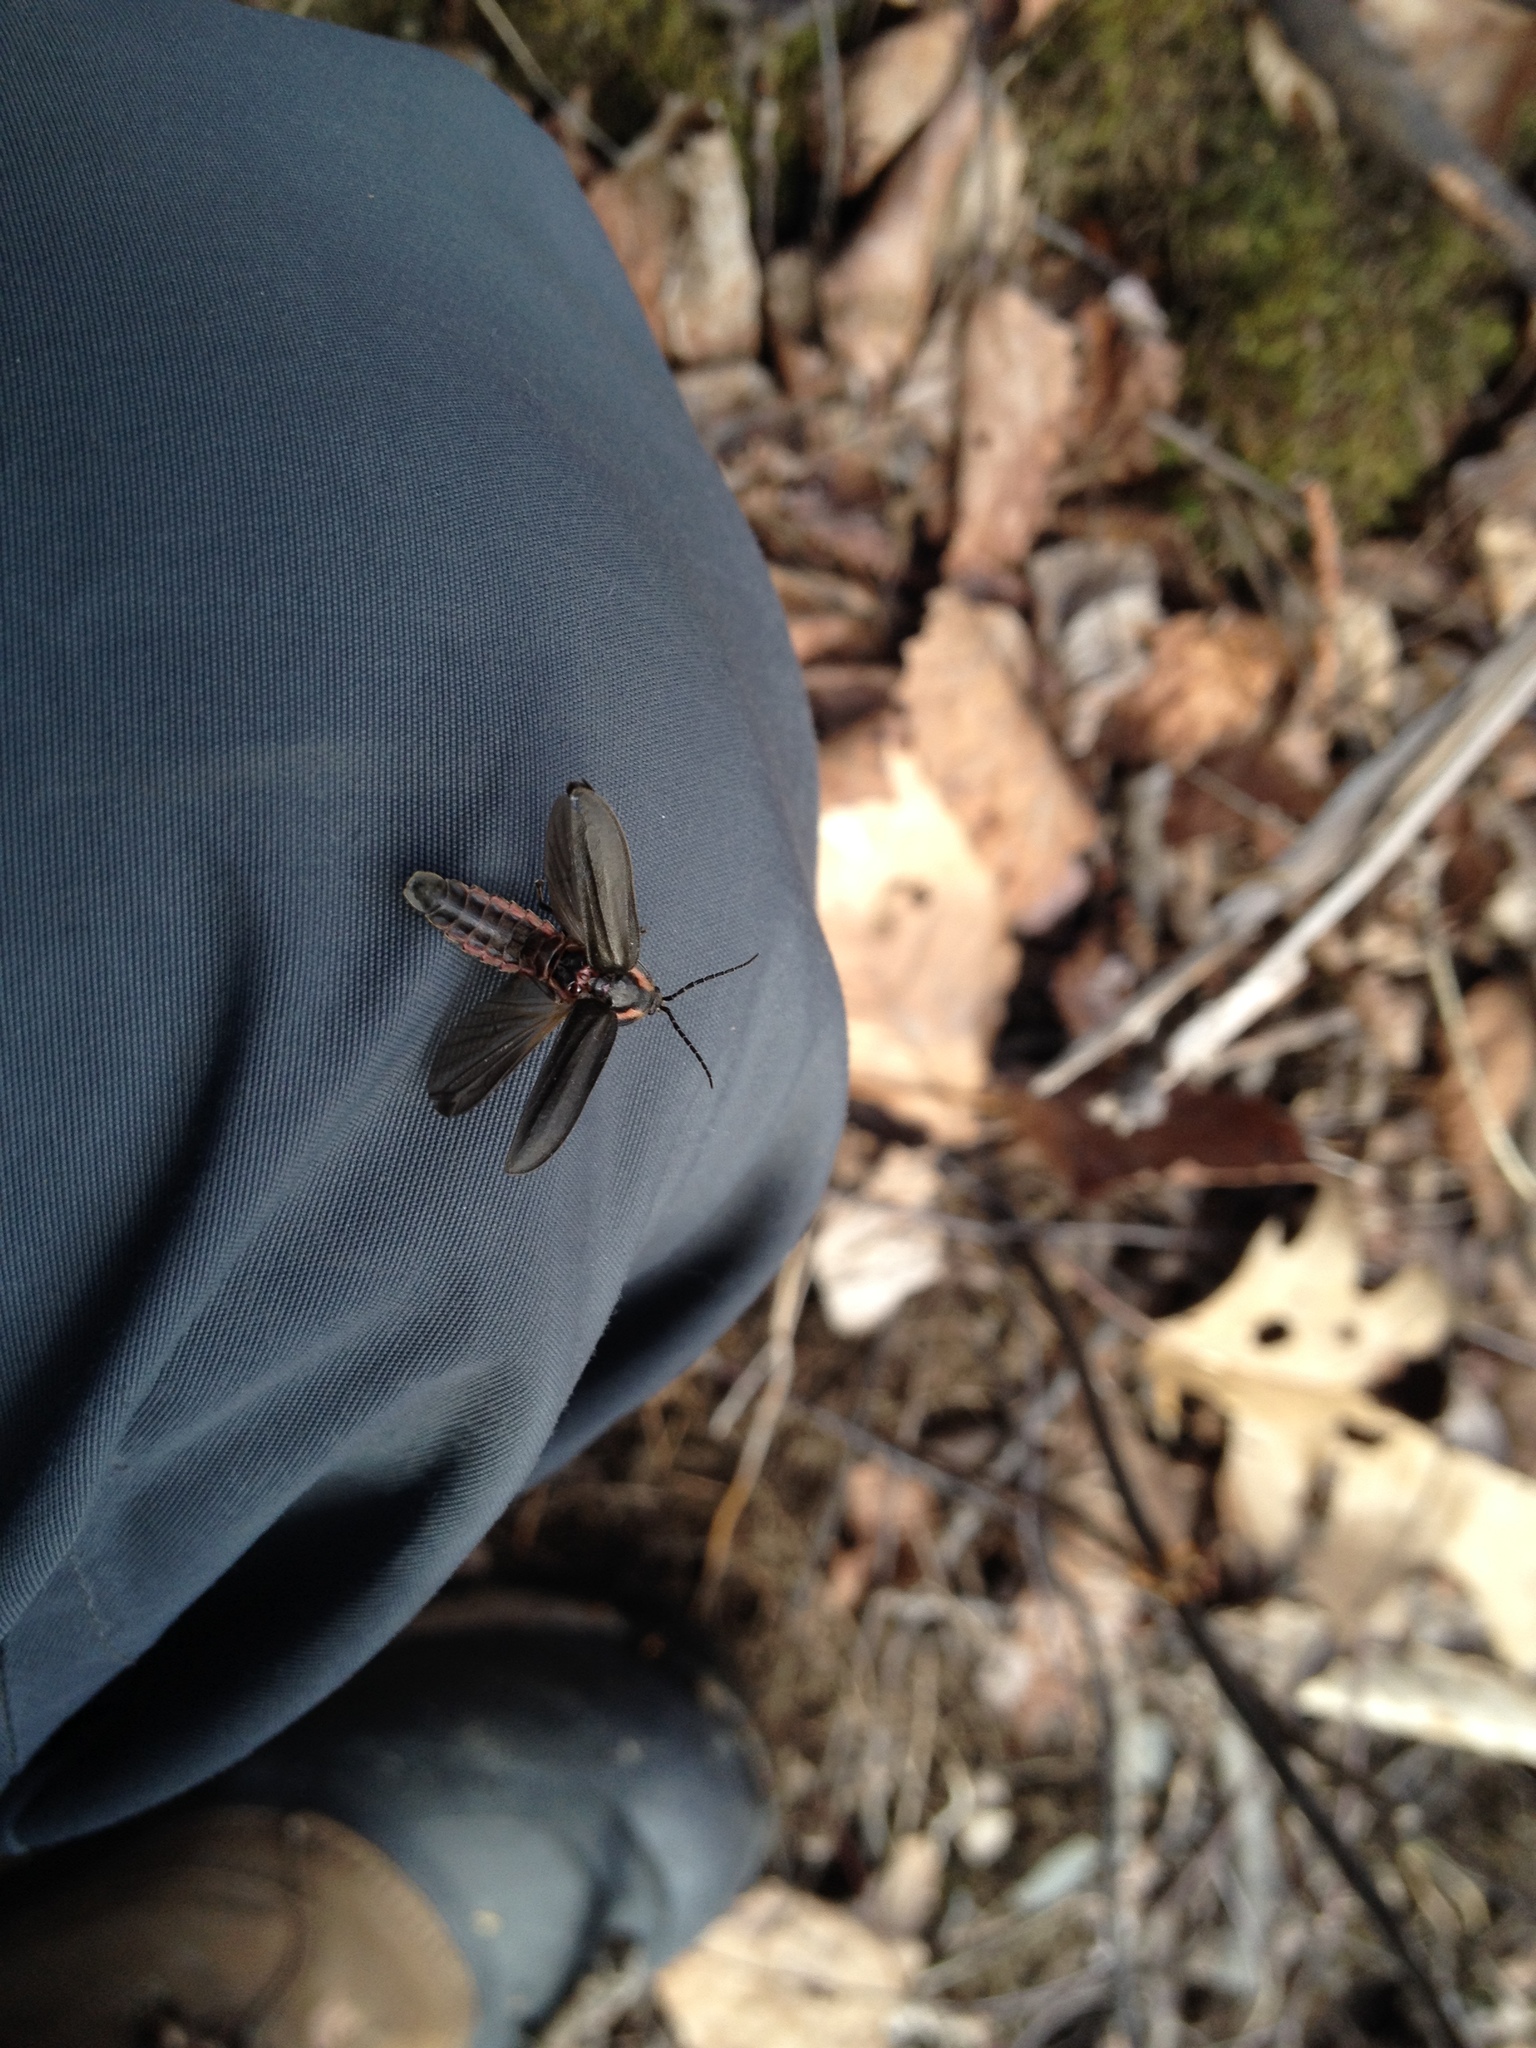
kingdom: Animalia
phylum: Arthropoda
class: Insecta
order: Coleoptera
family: Lampyridae
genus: Photinus
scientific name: Photinus corrusca
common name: Winter firefly
